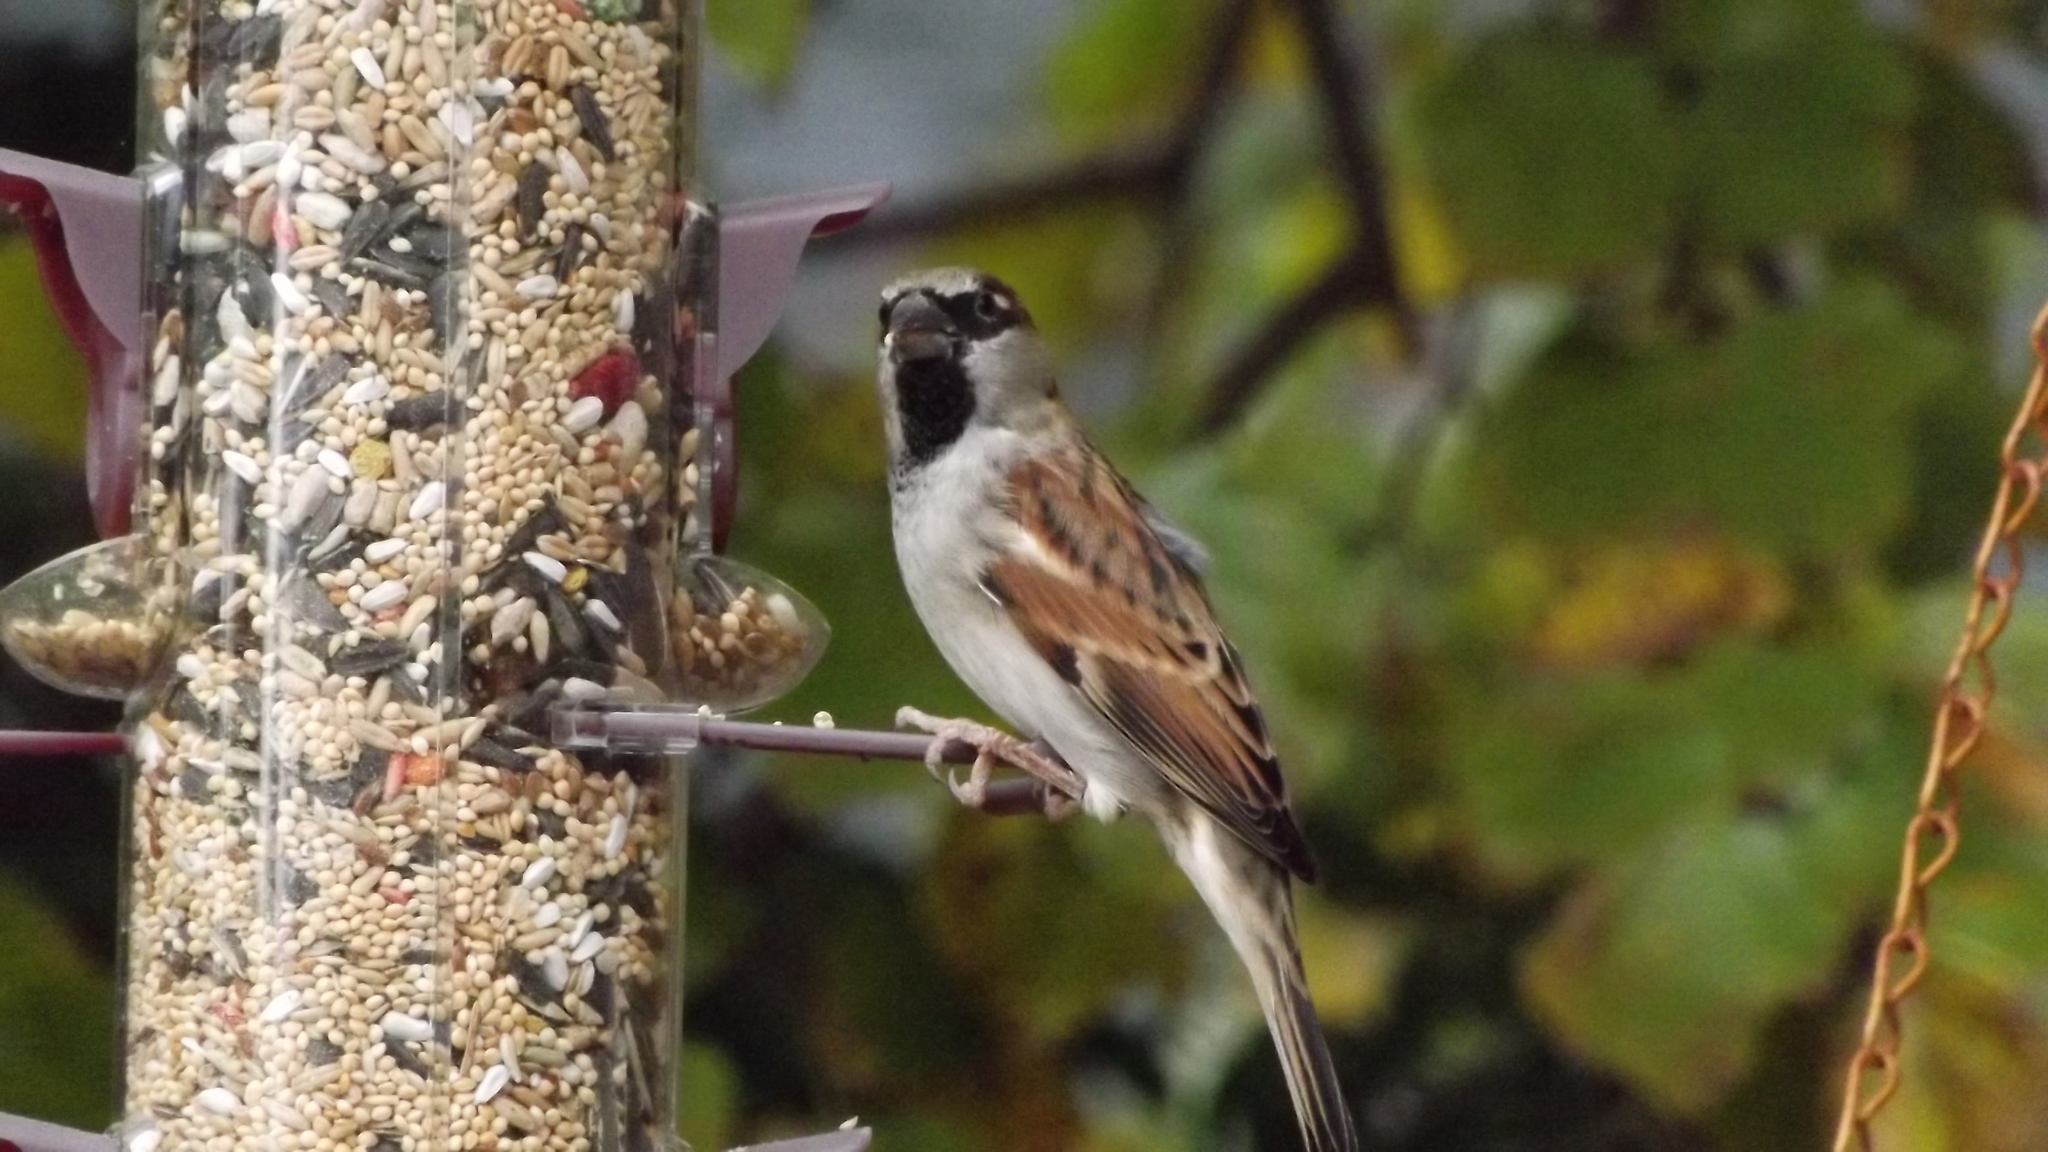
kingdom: Animalia
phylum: Chordata
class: Aves
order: Passeriformes
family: Passeridae
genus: Passer
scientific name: Passer domesticus
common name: House sparrow
